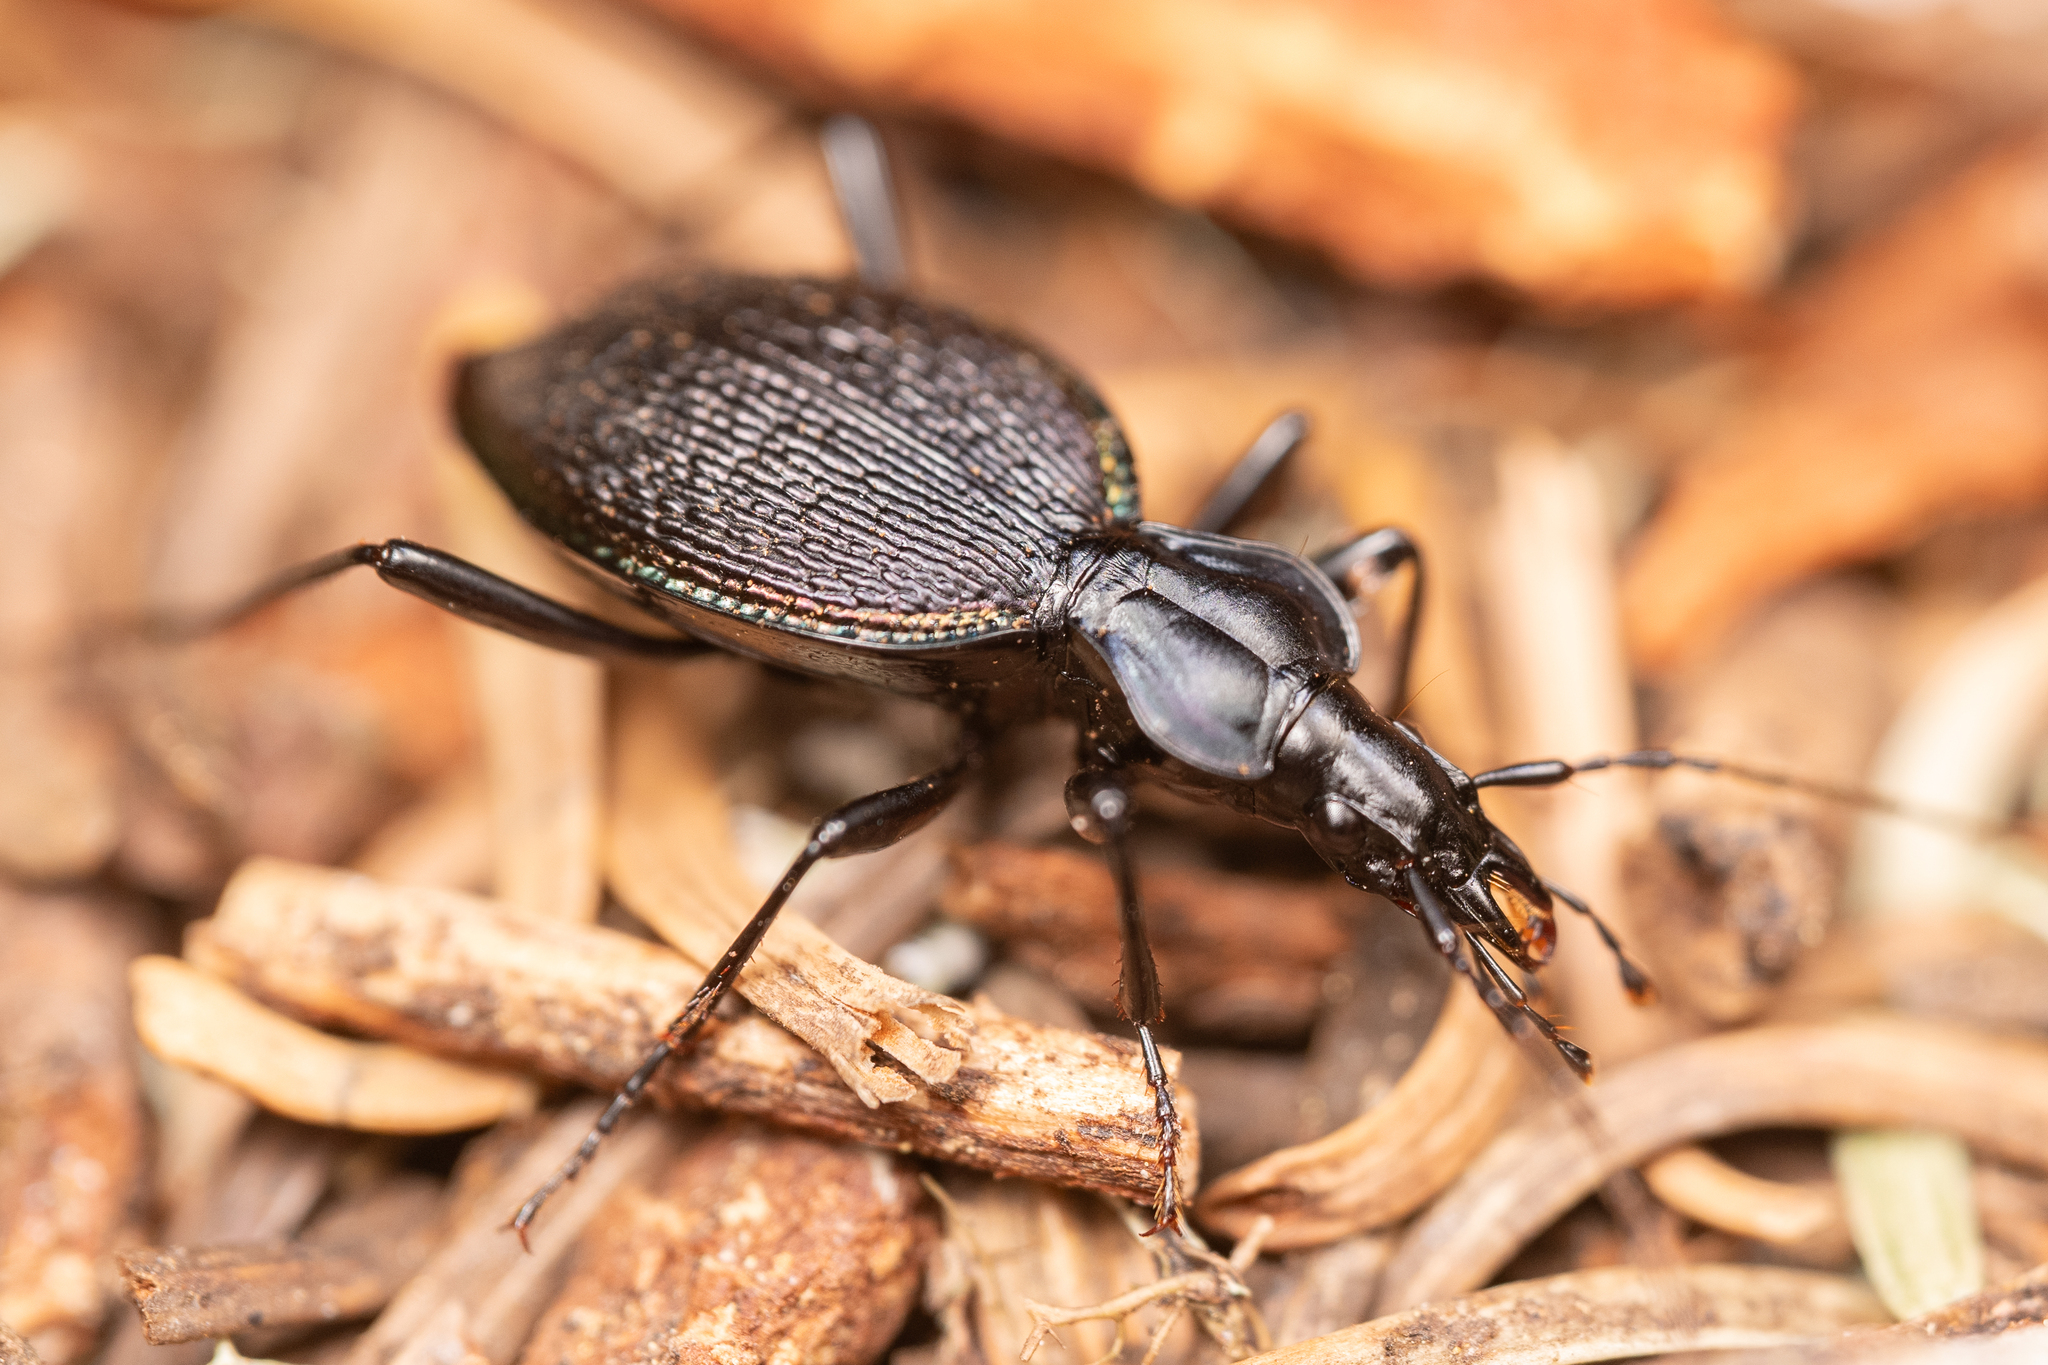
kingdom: Animalia
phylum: Arthropoda
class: Insecta
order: Coleoptera
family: Carabidae
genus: Scaphinotus
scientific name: Scaphinotus marginatus
